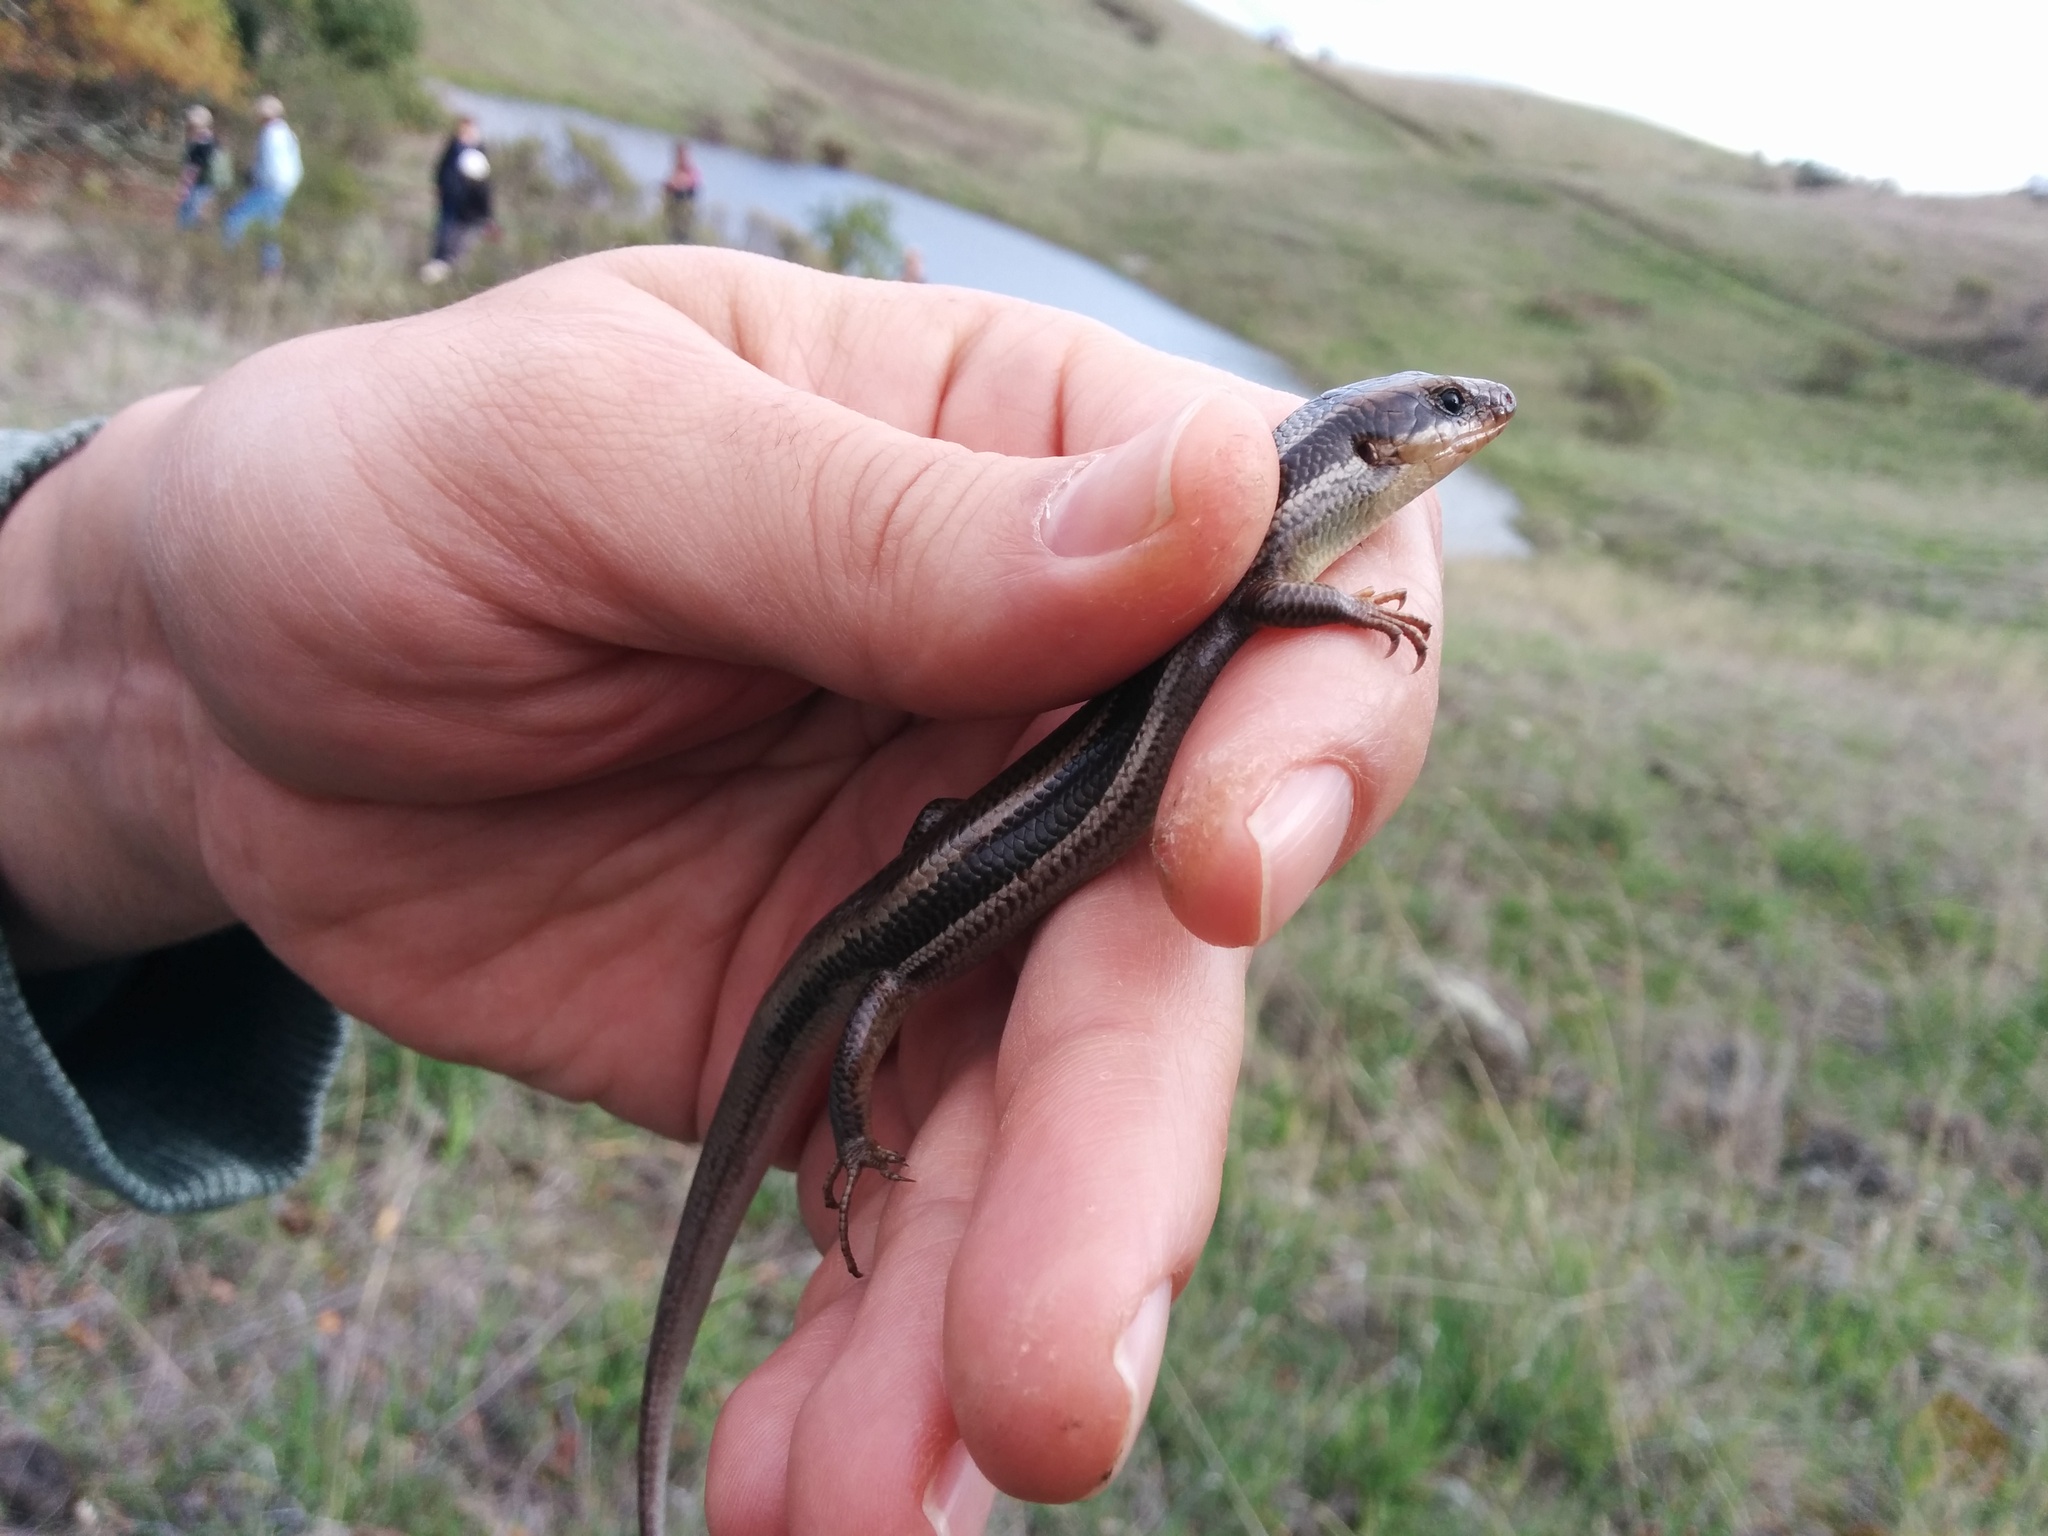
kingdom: Animalia
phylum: Chordata
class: Squamata
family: Scincidae
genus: Plestiodon
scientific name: Plestiodon skiltonianus
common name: Coronado island skink [interparietalis]
